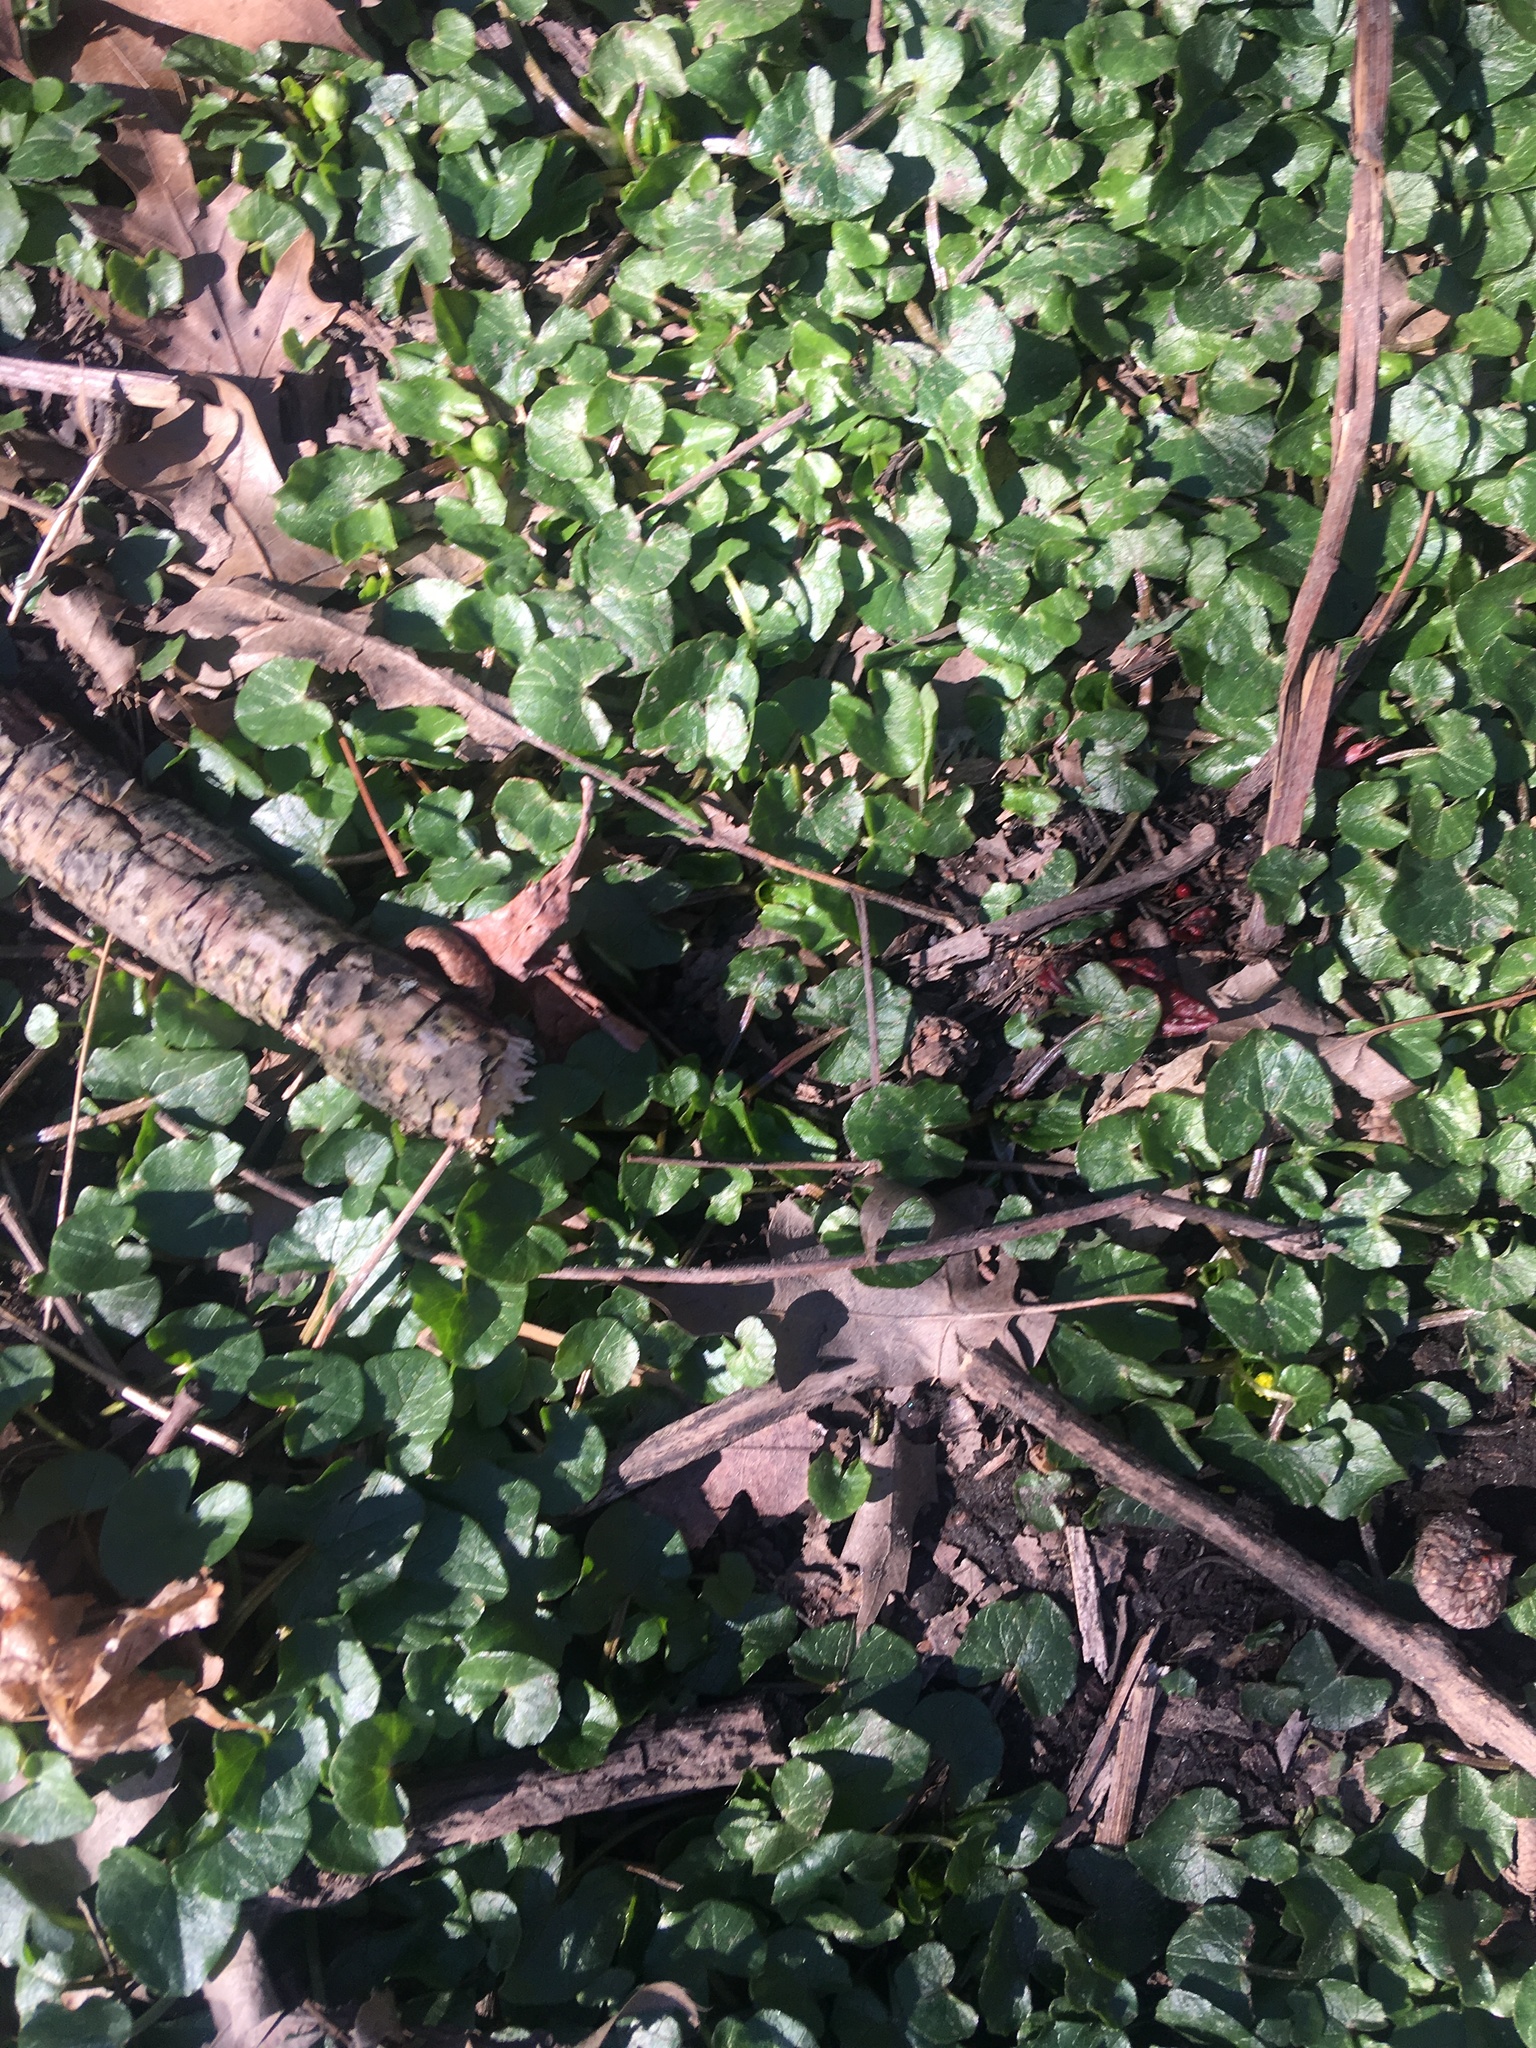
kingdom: Plantae
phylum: Tracheophyta
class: Magnoliopsida
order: Ranunculales
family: Ranunculaceae
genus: Ficaria
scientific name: Ficaria verna
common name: Lesser celandine
